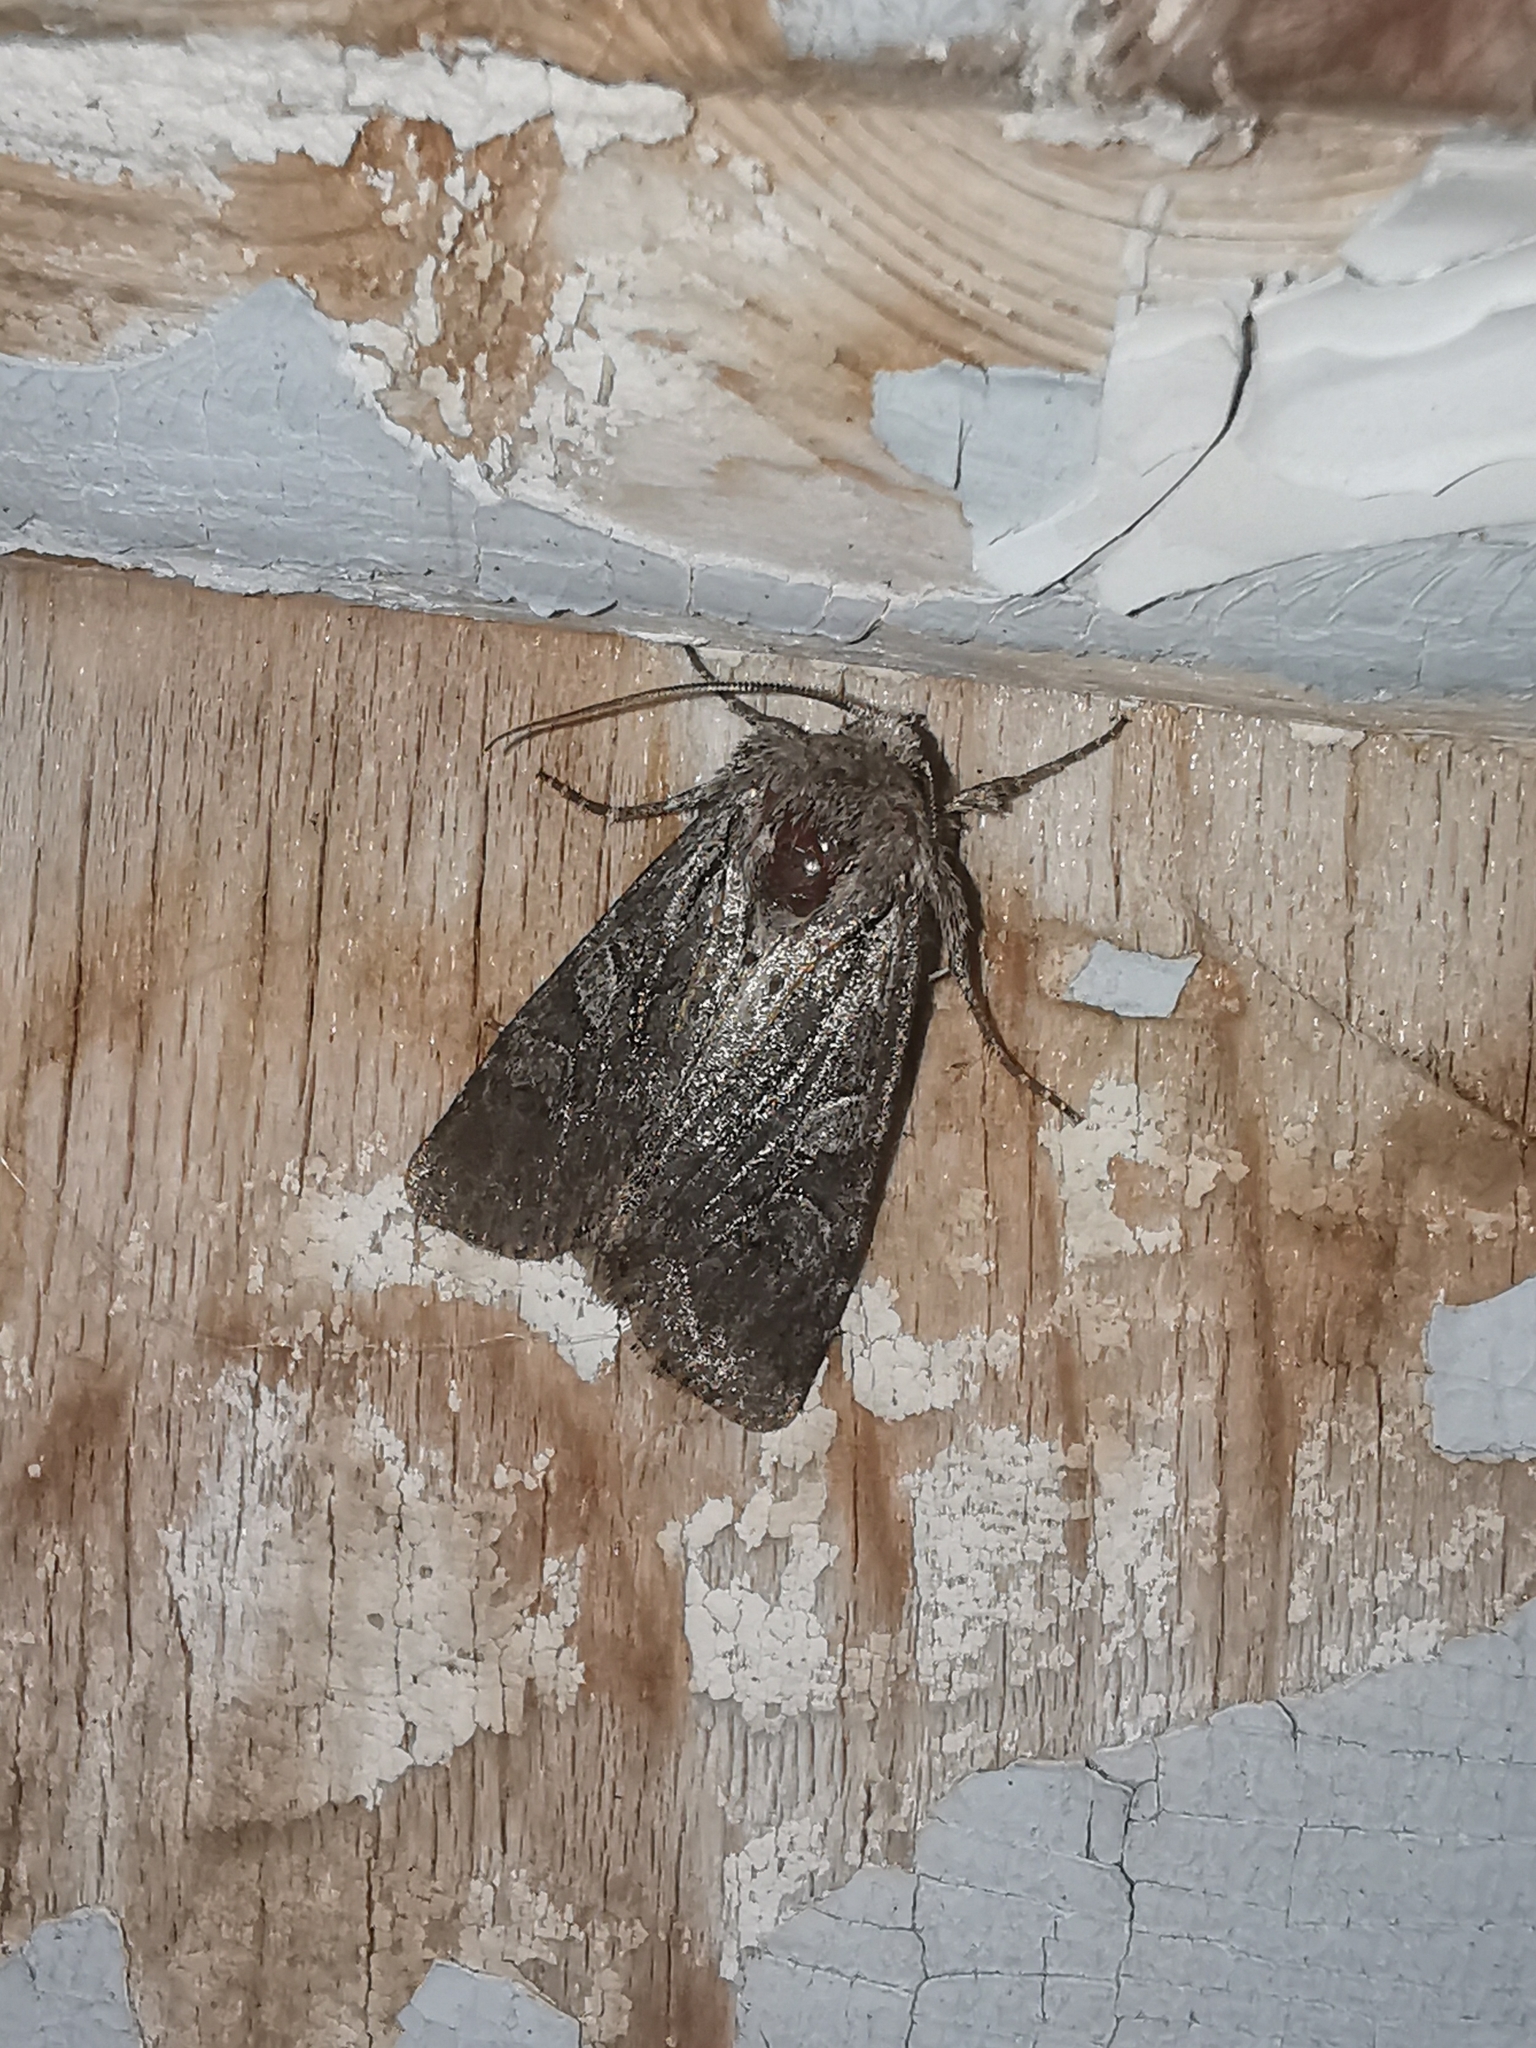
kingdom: Animalia
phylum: Arthropoda
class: Insecta
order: Lepidoptera
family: Noctuidae
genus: Lasionycta
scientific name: Lasionycta proxima
